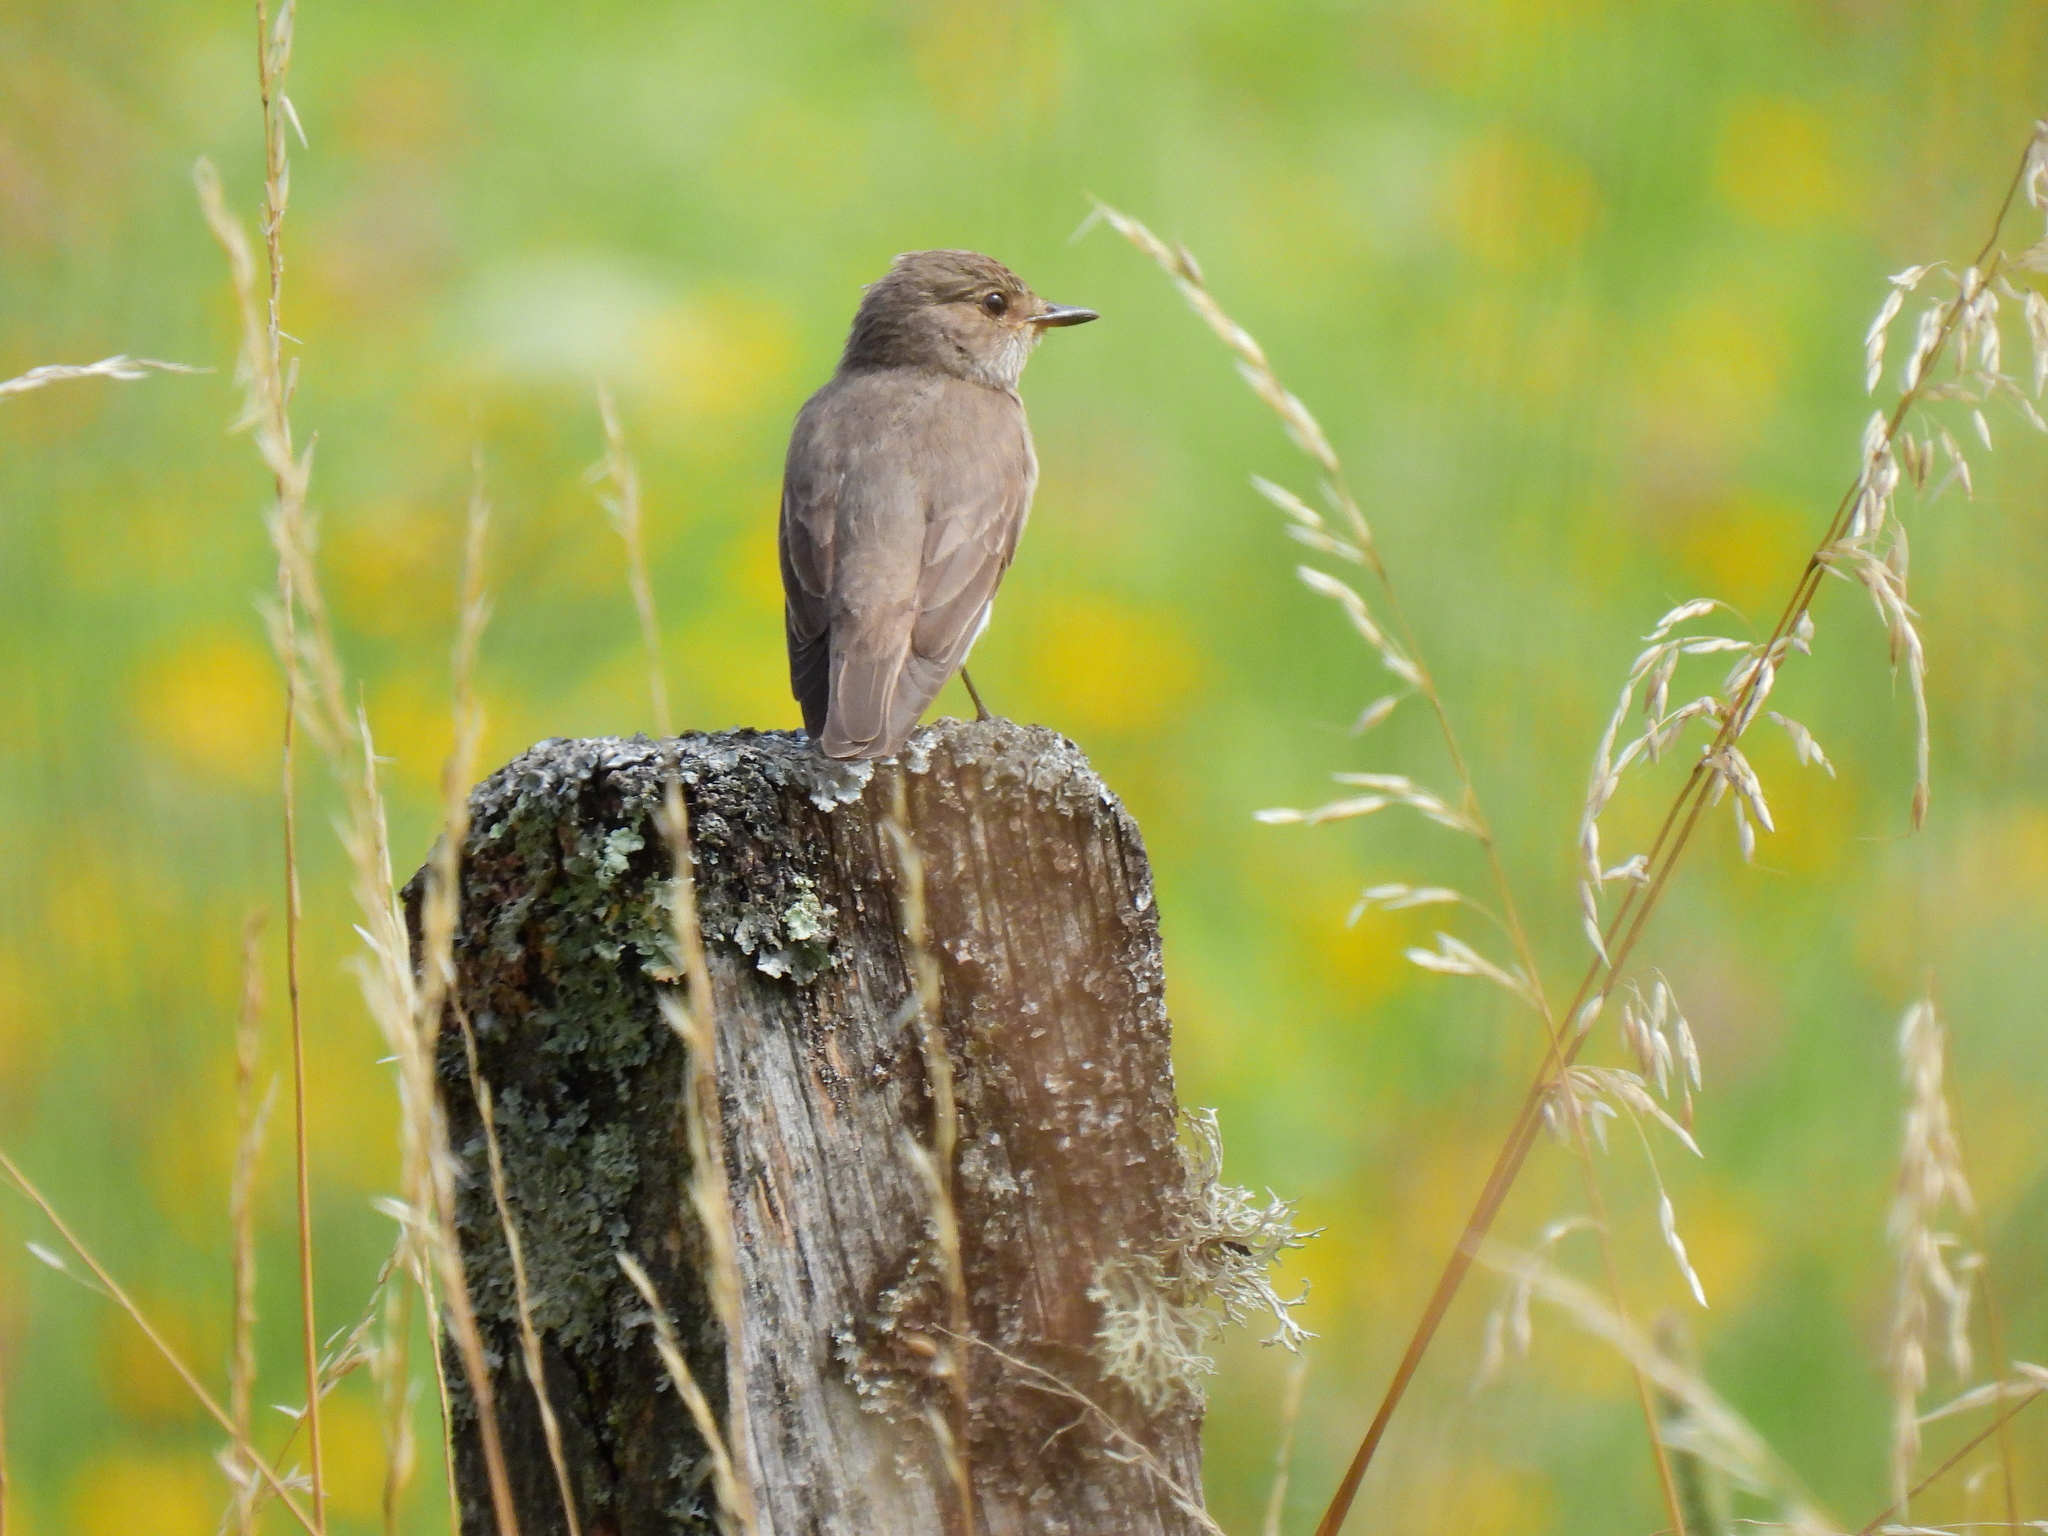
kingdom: Animalia
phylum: Chordata
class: Aves
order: Passeriformes
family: Muscicapidae
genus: Muscicapa
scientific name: Muscicapa striata
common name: Spotted flycatcher
